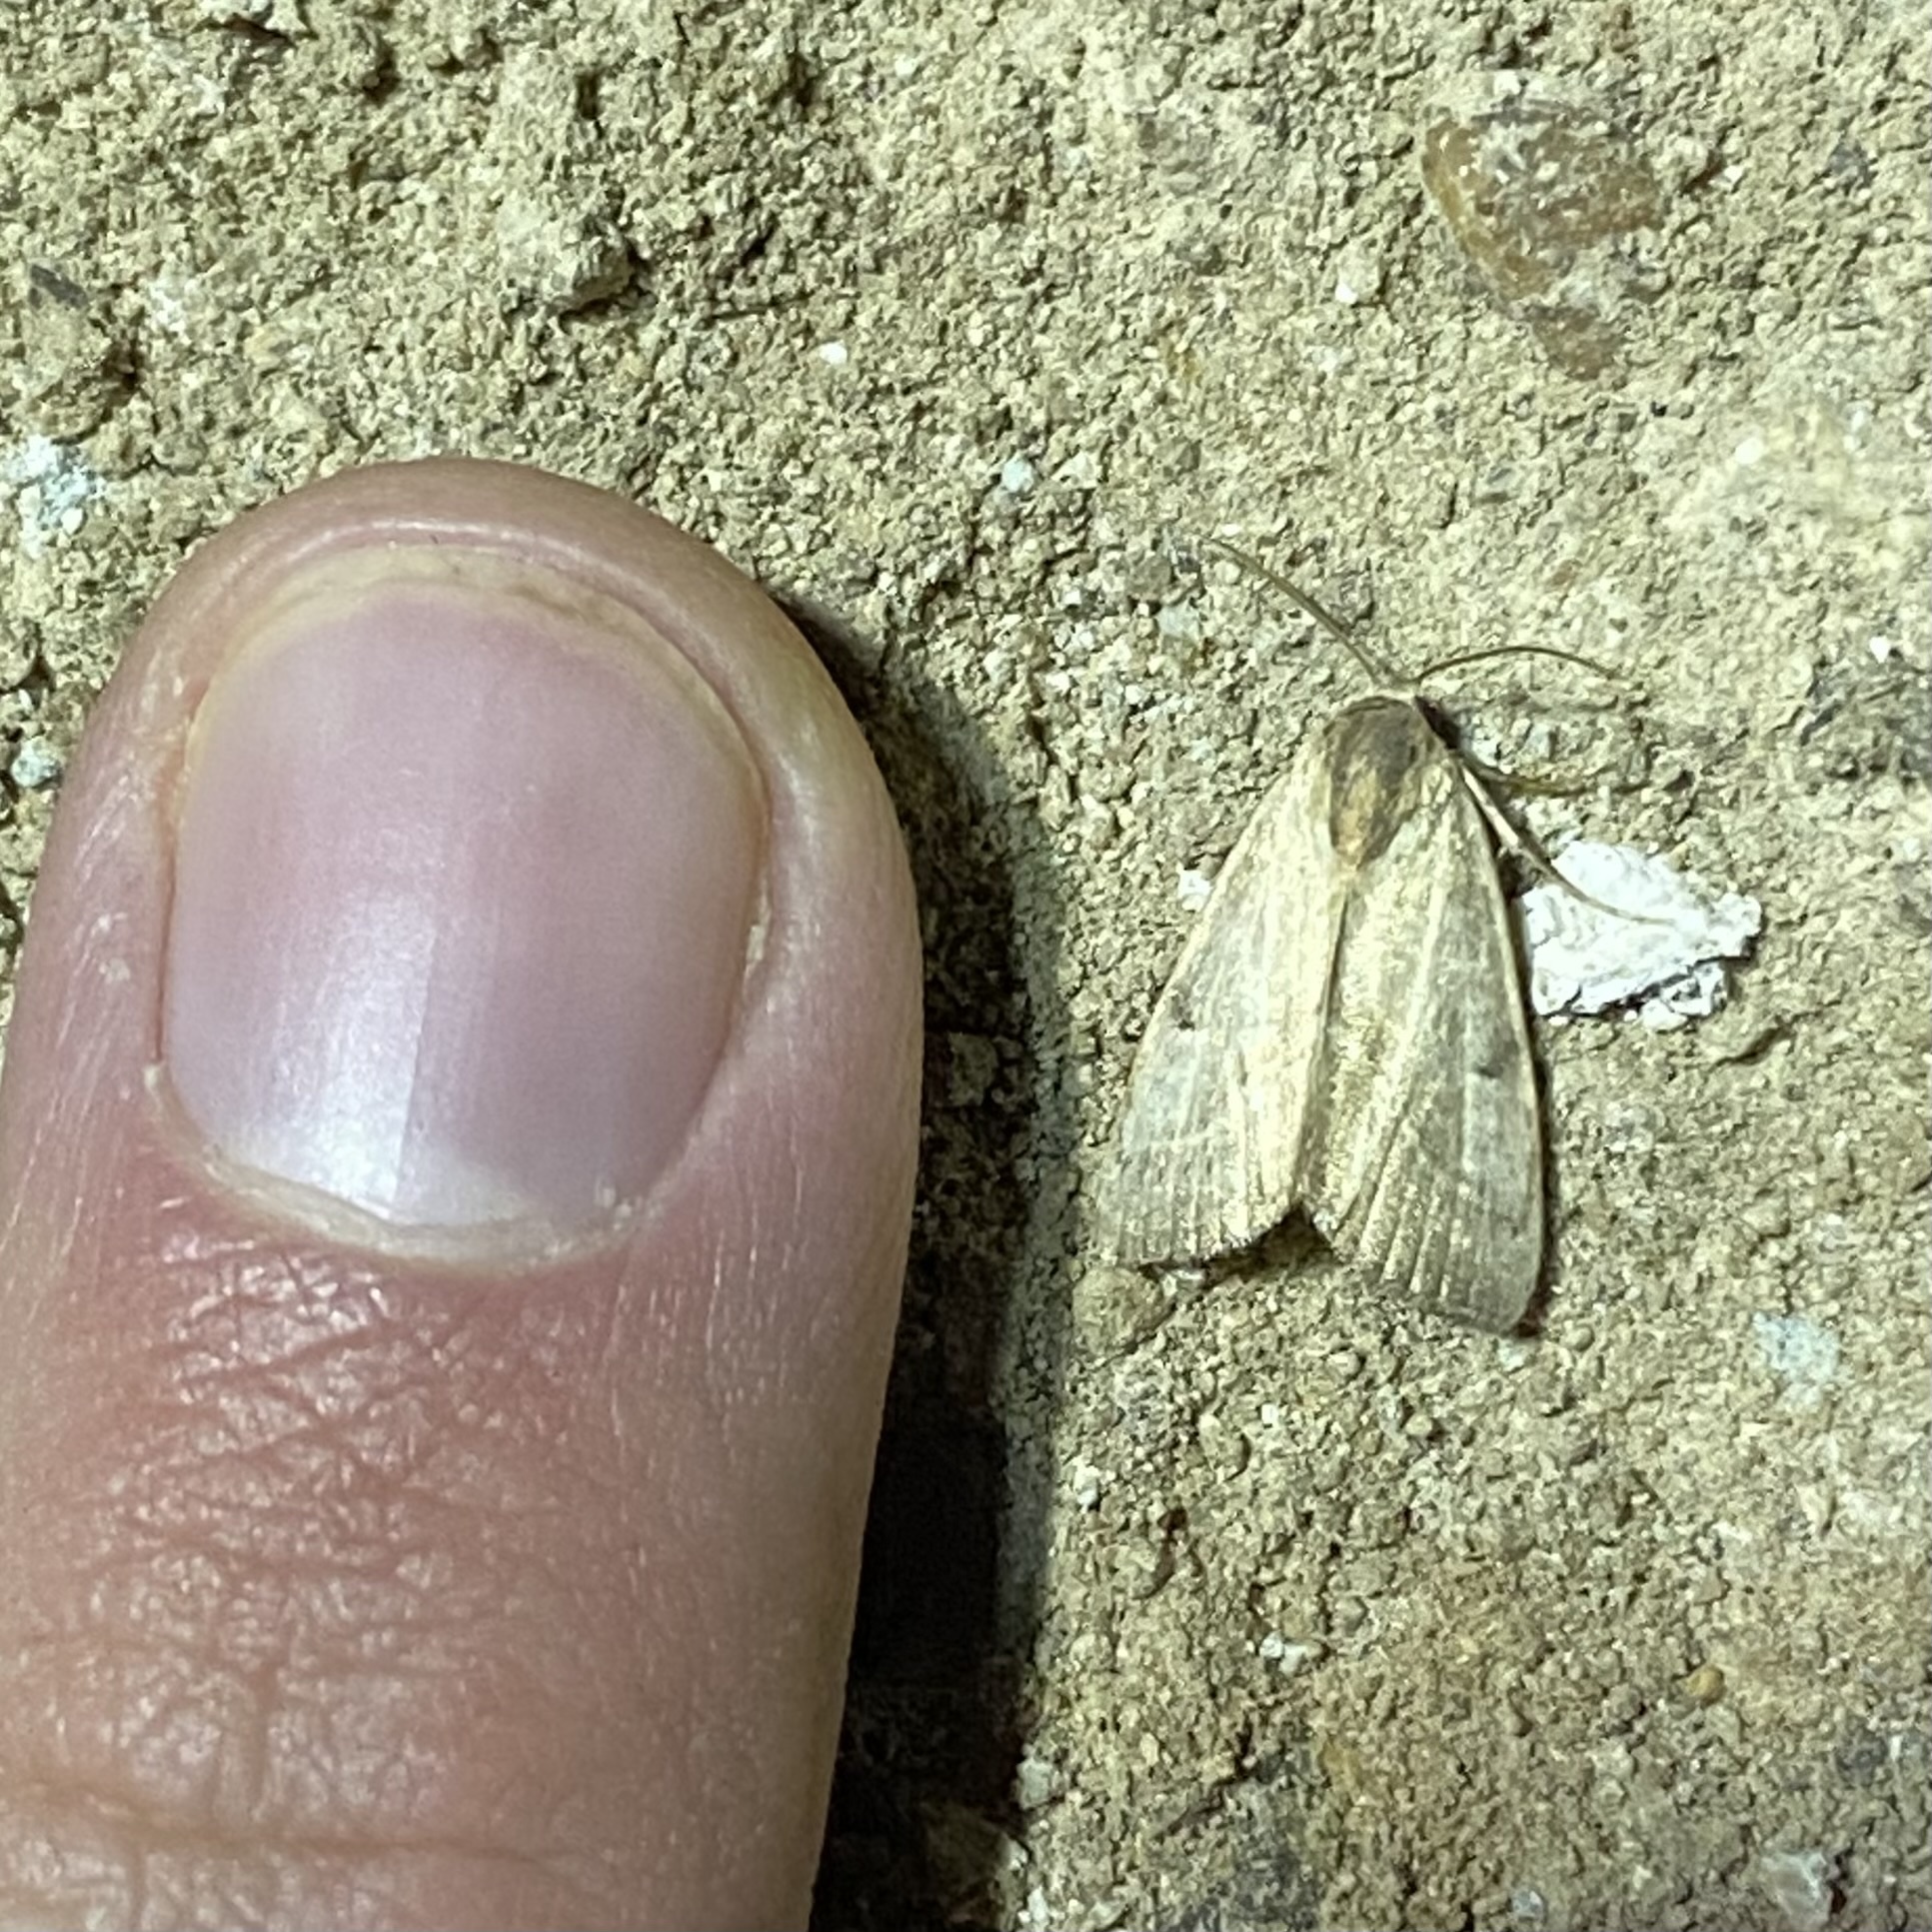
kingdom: Animalia
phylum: Arthropoda
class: Insecta
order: Lepidoptera
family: Noctuidae
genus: Galgula
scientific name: Galgula partita
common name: Wedgeling
